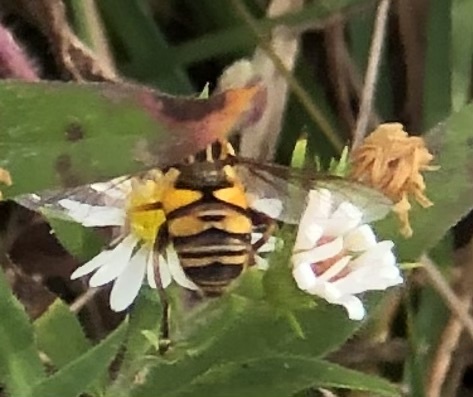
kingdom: Animalia
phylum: Arthropoda
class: Insecta
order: Diptera
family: Syrphidae
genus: Helophilus
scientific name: Helophilus fasciatus
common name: Narrow-headed marsh fly
